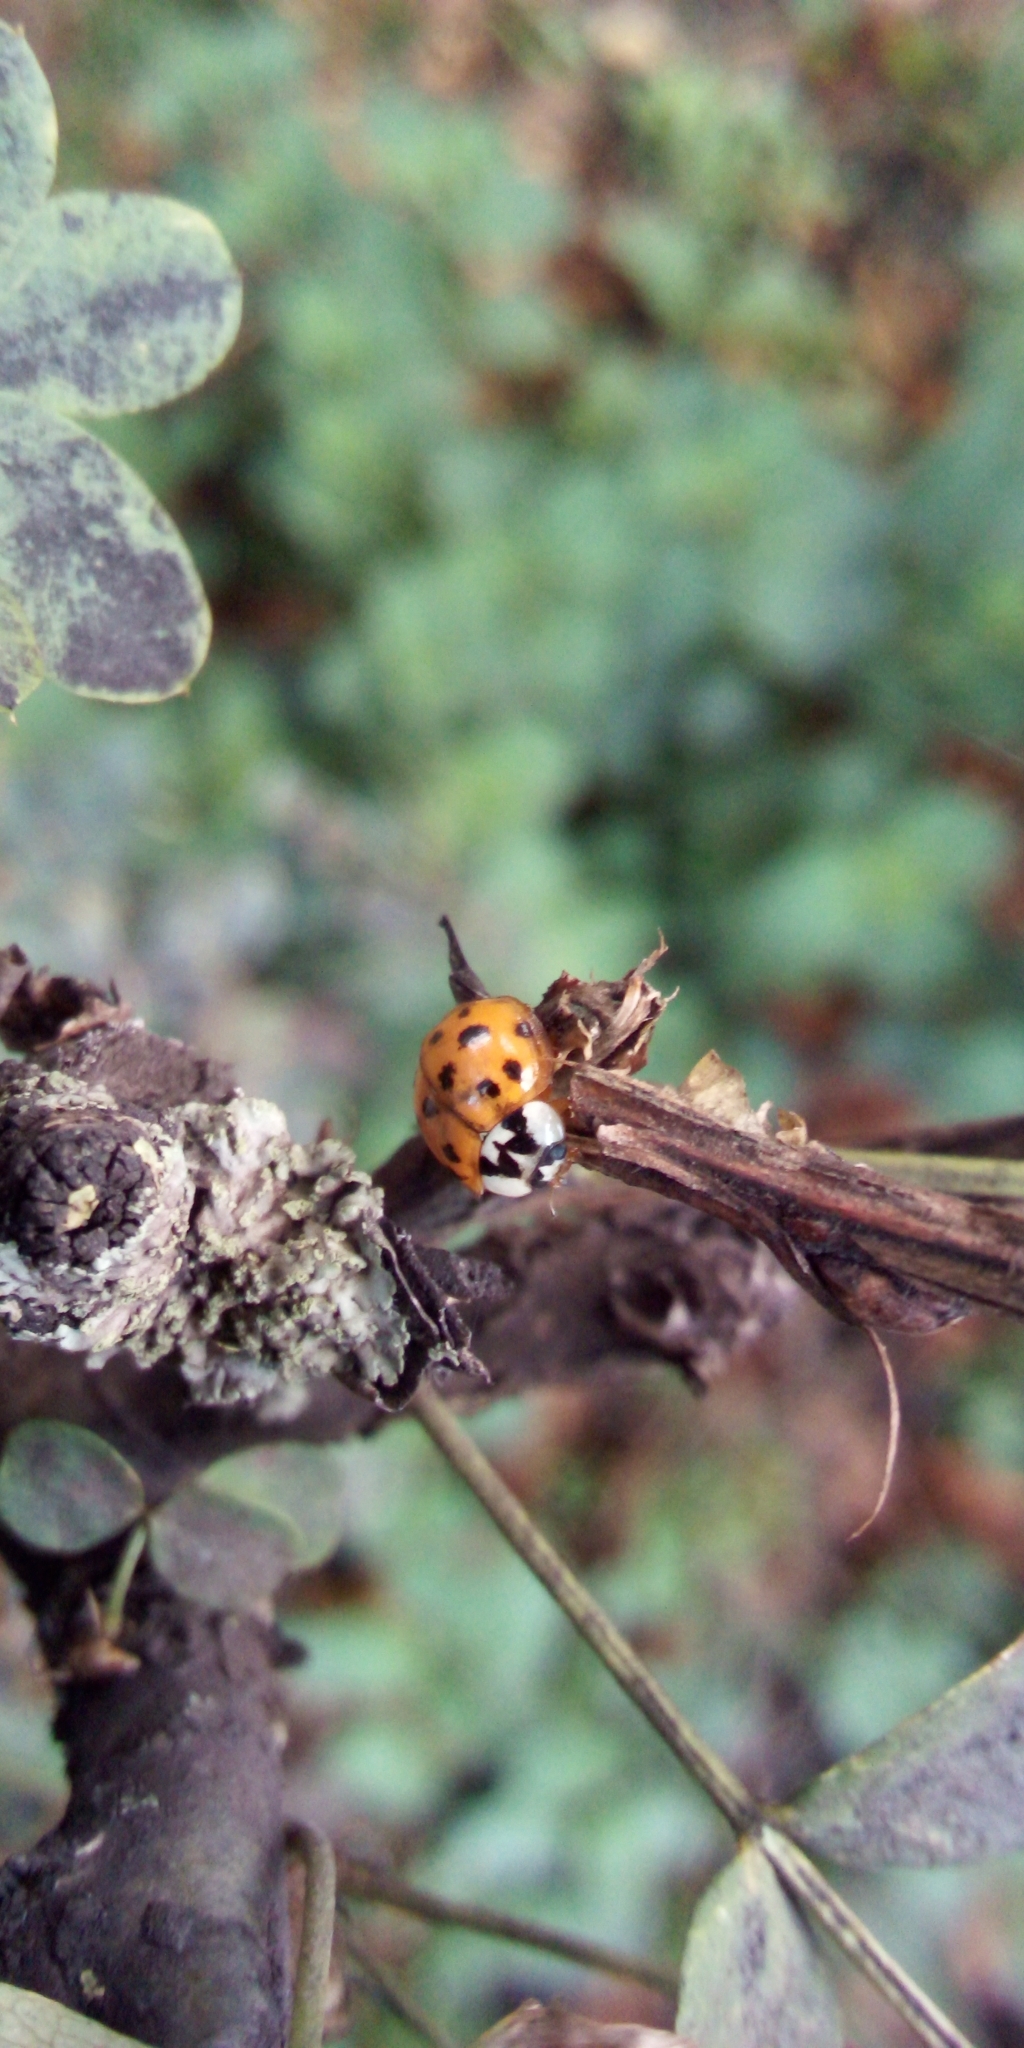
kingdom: Animalia
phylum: Arthropoda
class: Insecta
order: Coleoptera
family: Coccinellidae
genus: Harmonia
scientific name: Harmonia axyridis
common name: Harlequin ladybird
